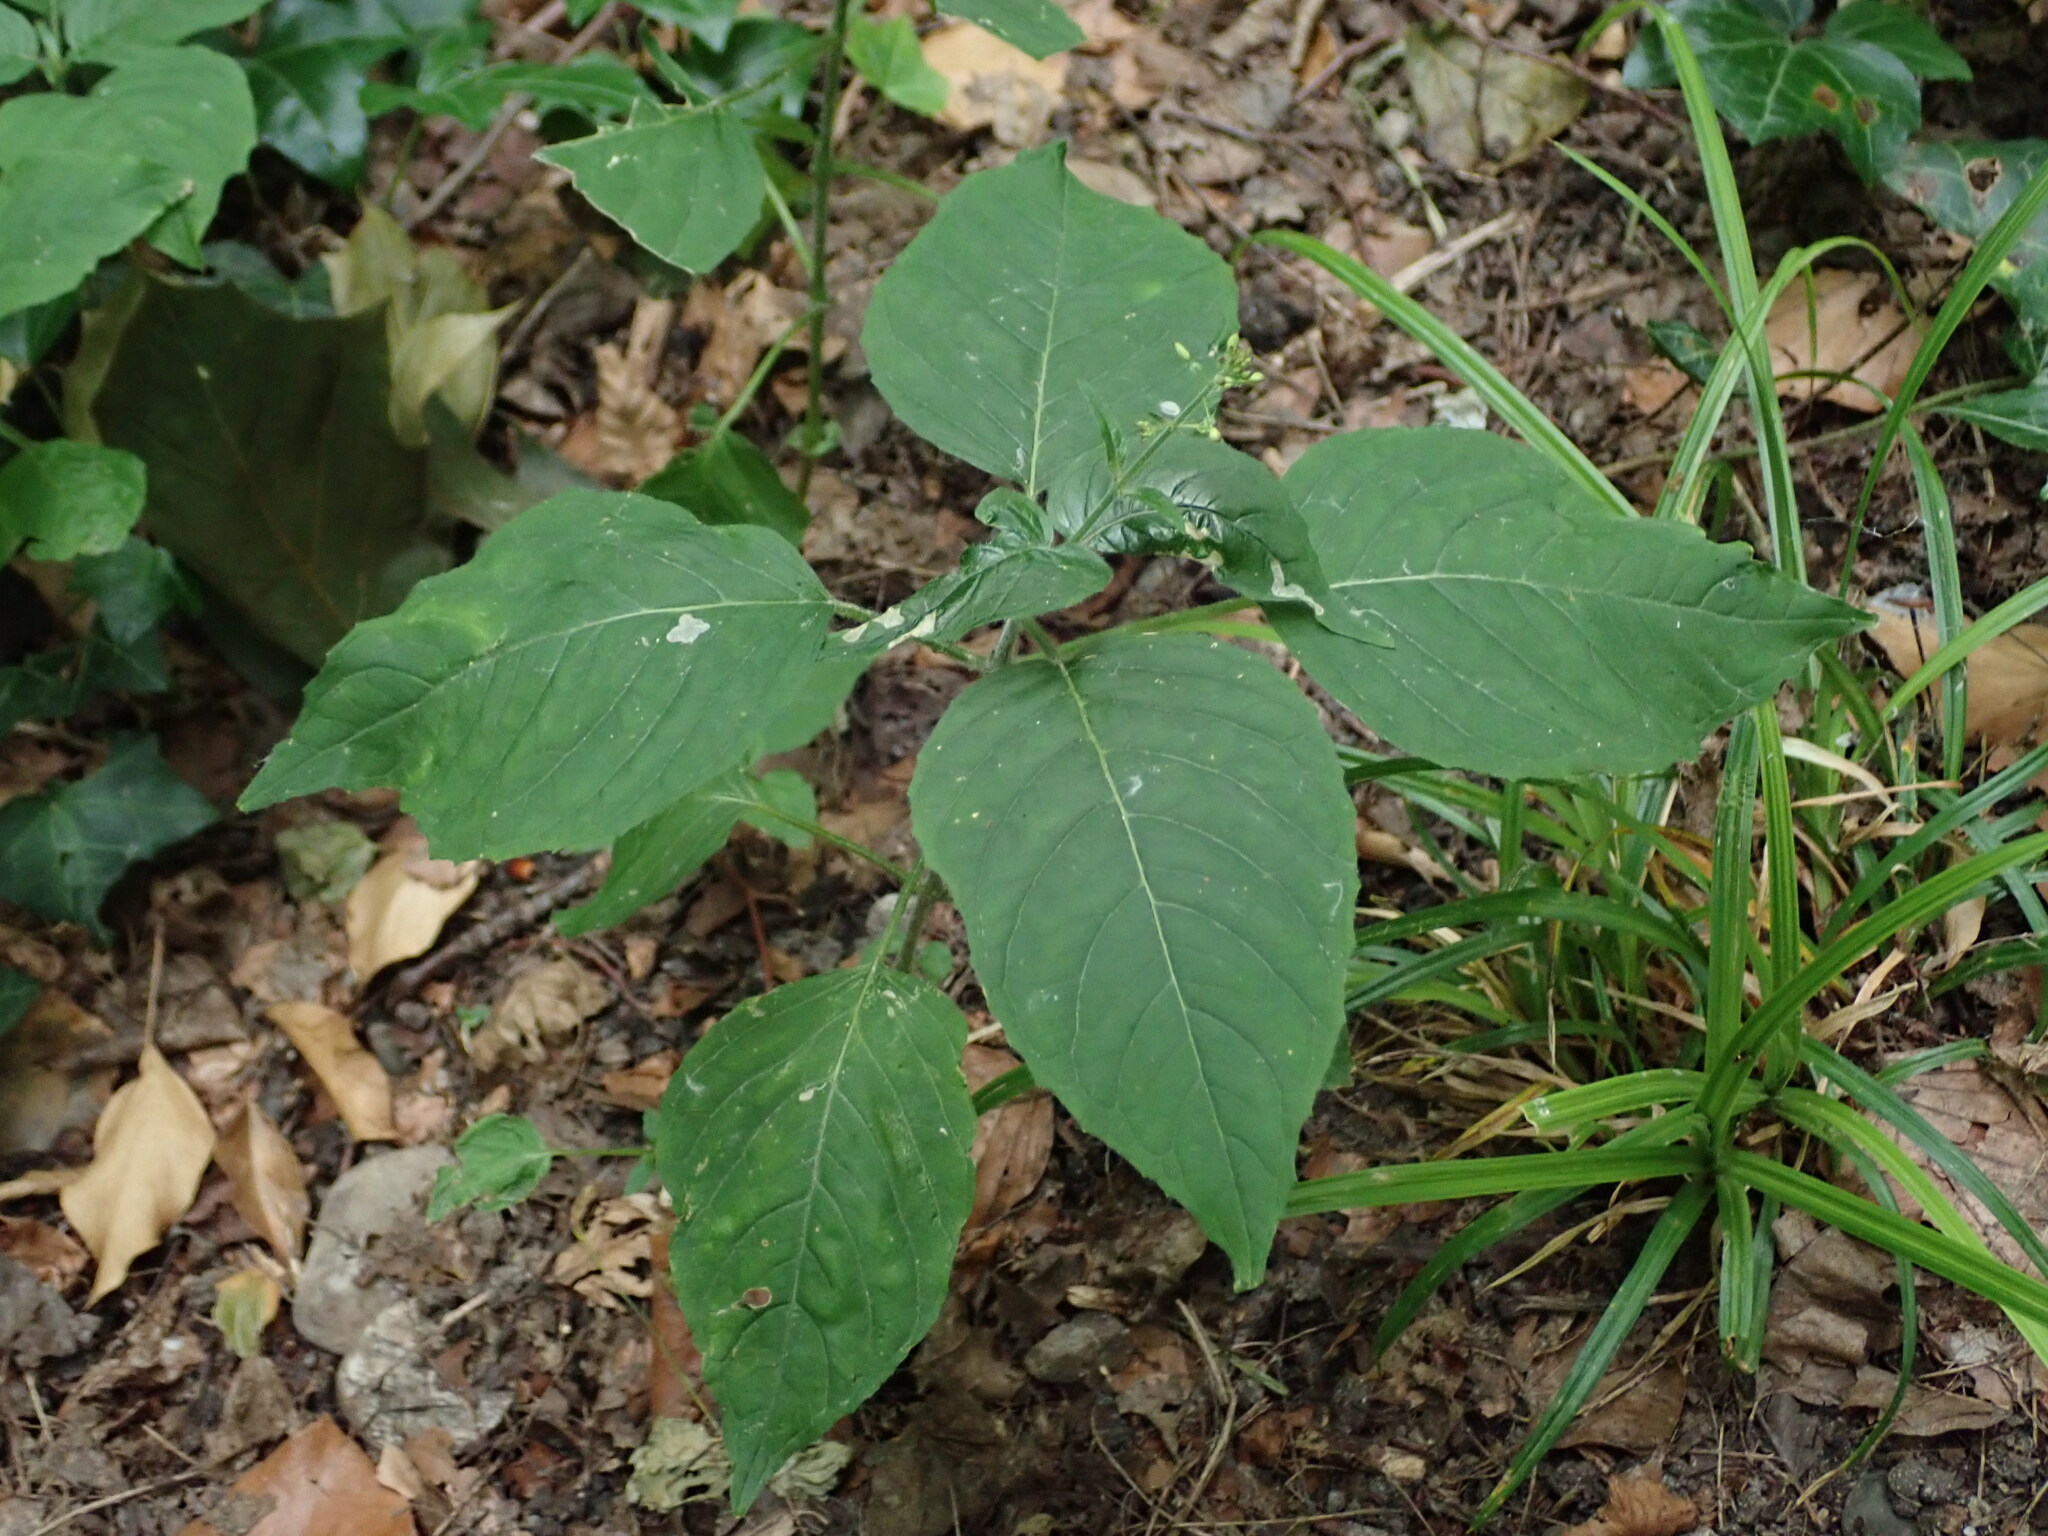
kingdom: Plantae
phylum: Tracheophyta
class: Magnoliopsida
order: Myrtales
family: Onagraceae
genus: Circaea
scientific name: Circaea lutetiana
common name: Enchanter's-nightshade
